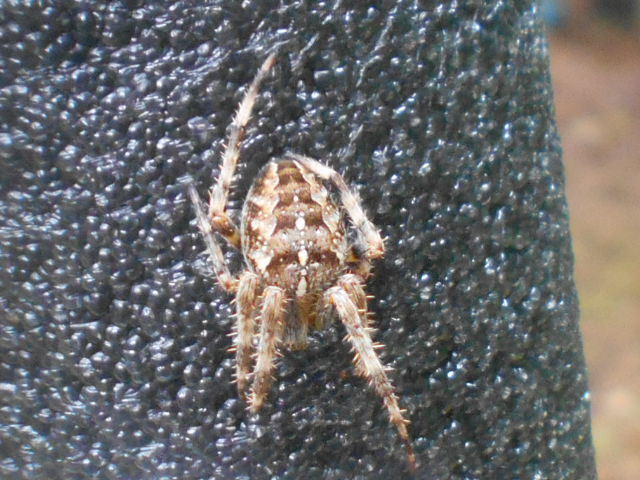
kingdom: Animalia
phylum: Arthropoda
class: Arachnida
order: Araneae
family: Araneidae
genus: Araneus
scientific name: Araneus diadematus
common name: Cross orbweaver
